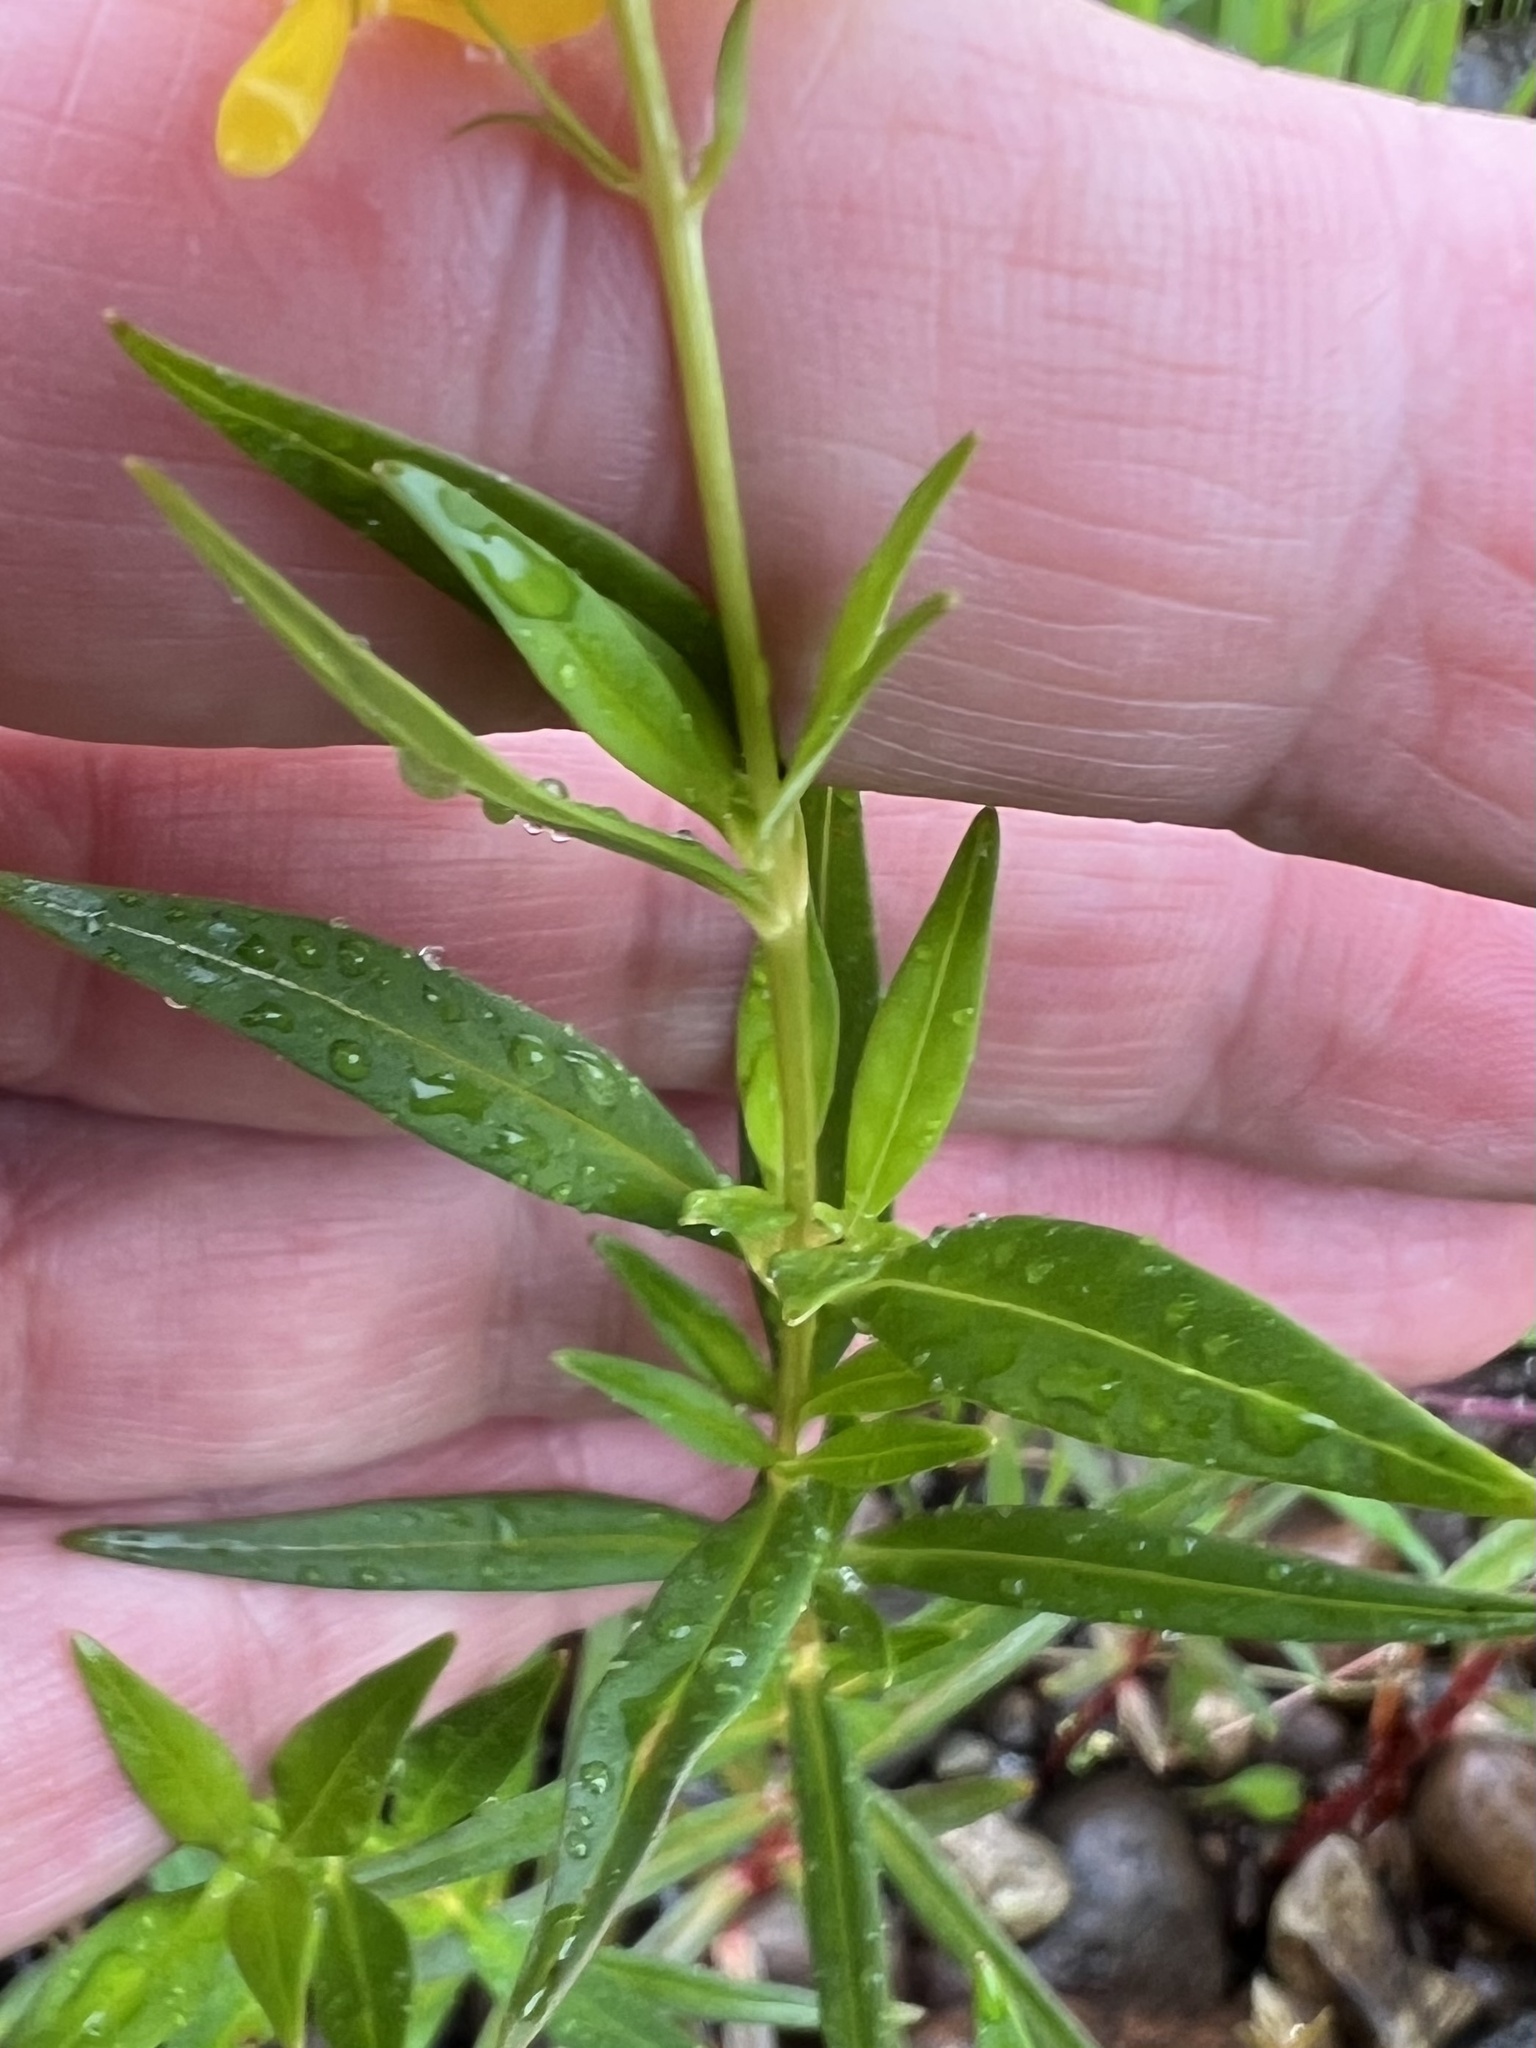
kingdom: Plantae
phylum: Tracheophyta
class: Magnoliopsida
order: Ericales
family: Primulaceae
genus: Lysimachia
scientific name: Lysimachia terrestris
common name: Lake loosestrife
